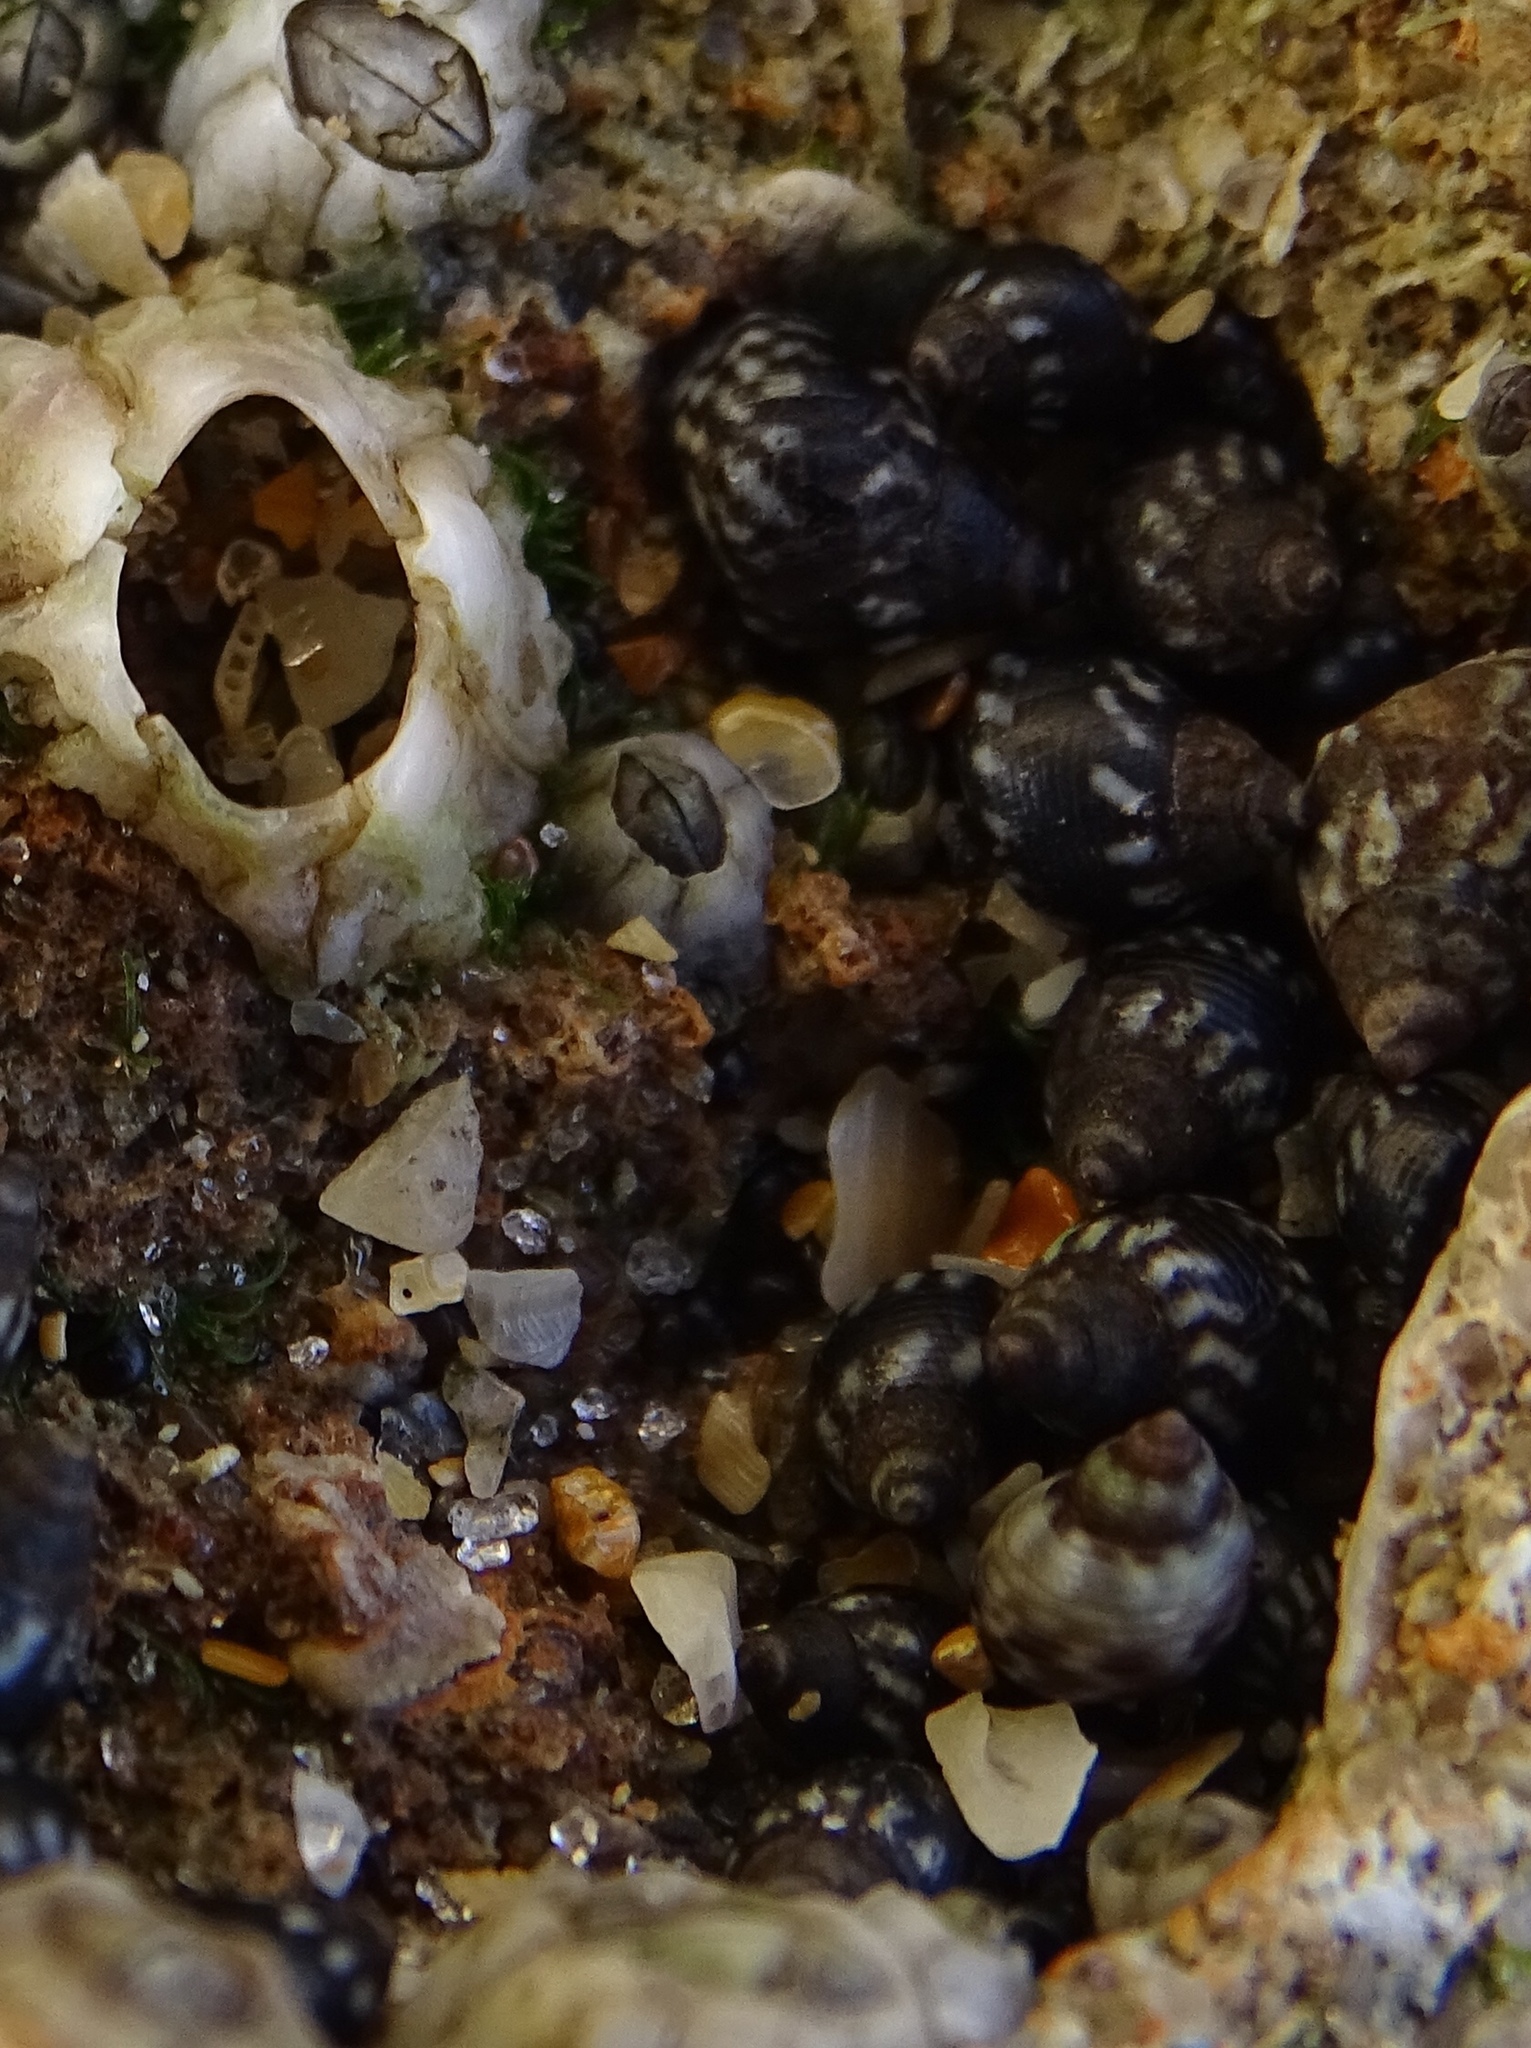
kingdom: Animalia
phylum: Mollusca
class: Gastropoda
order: Littorinimorpha
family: Littorinidae
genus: Echinolittorina
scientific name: Echinolittorina placida
